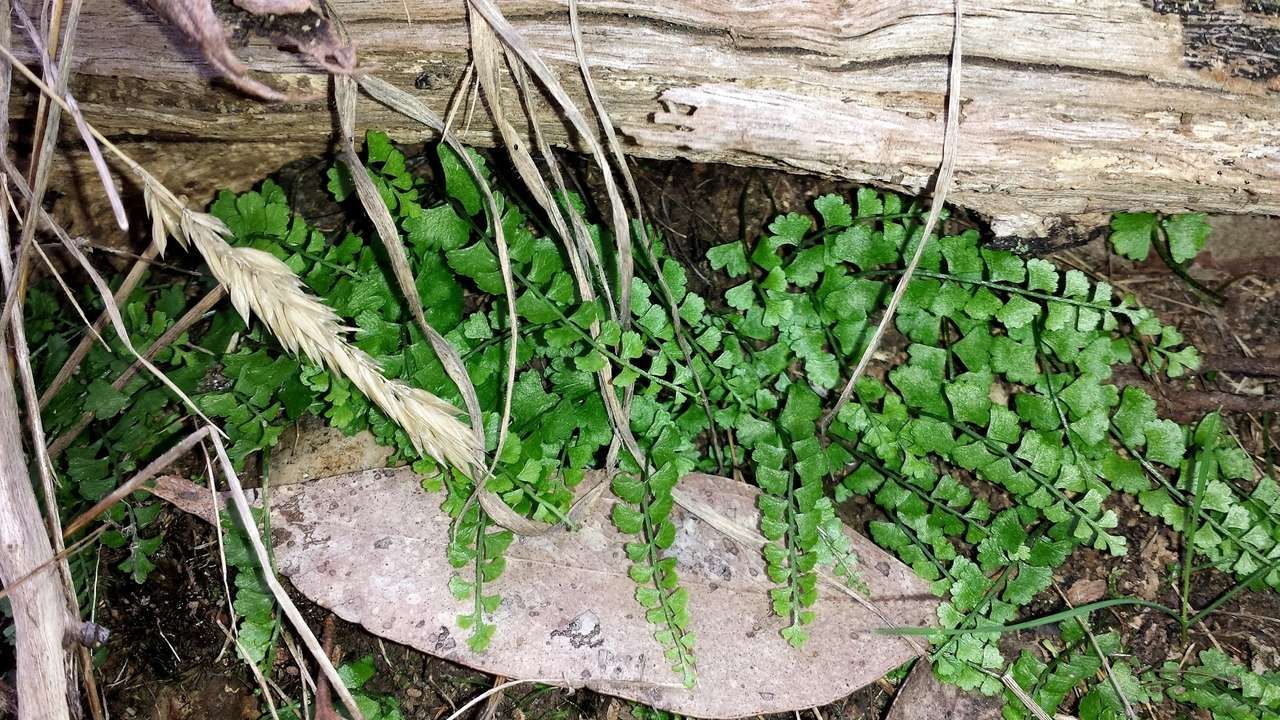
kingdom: Plantae
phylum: Tracheophyta
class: Polypodiopsida
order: Polypodiales
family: Aspleniaceae
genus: Asplenium
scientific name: Asplenium flabellifolium
